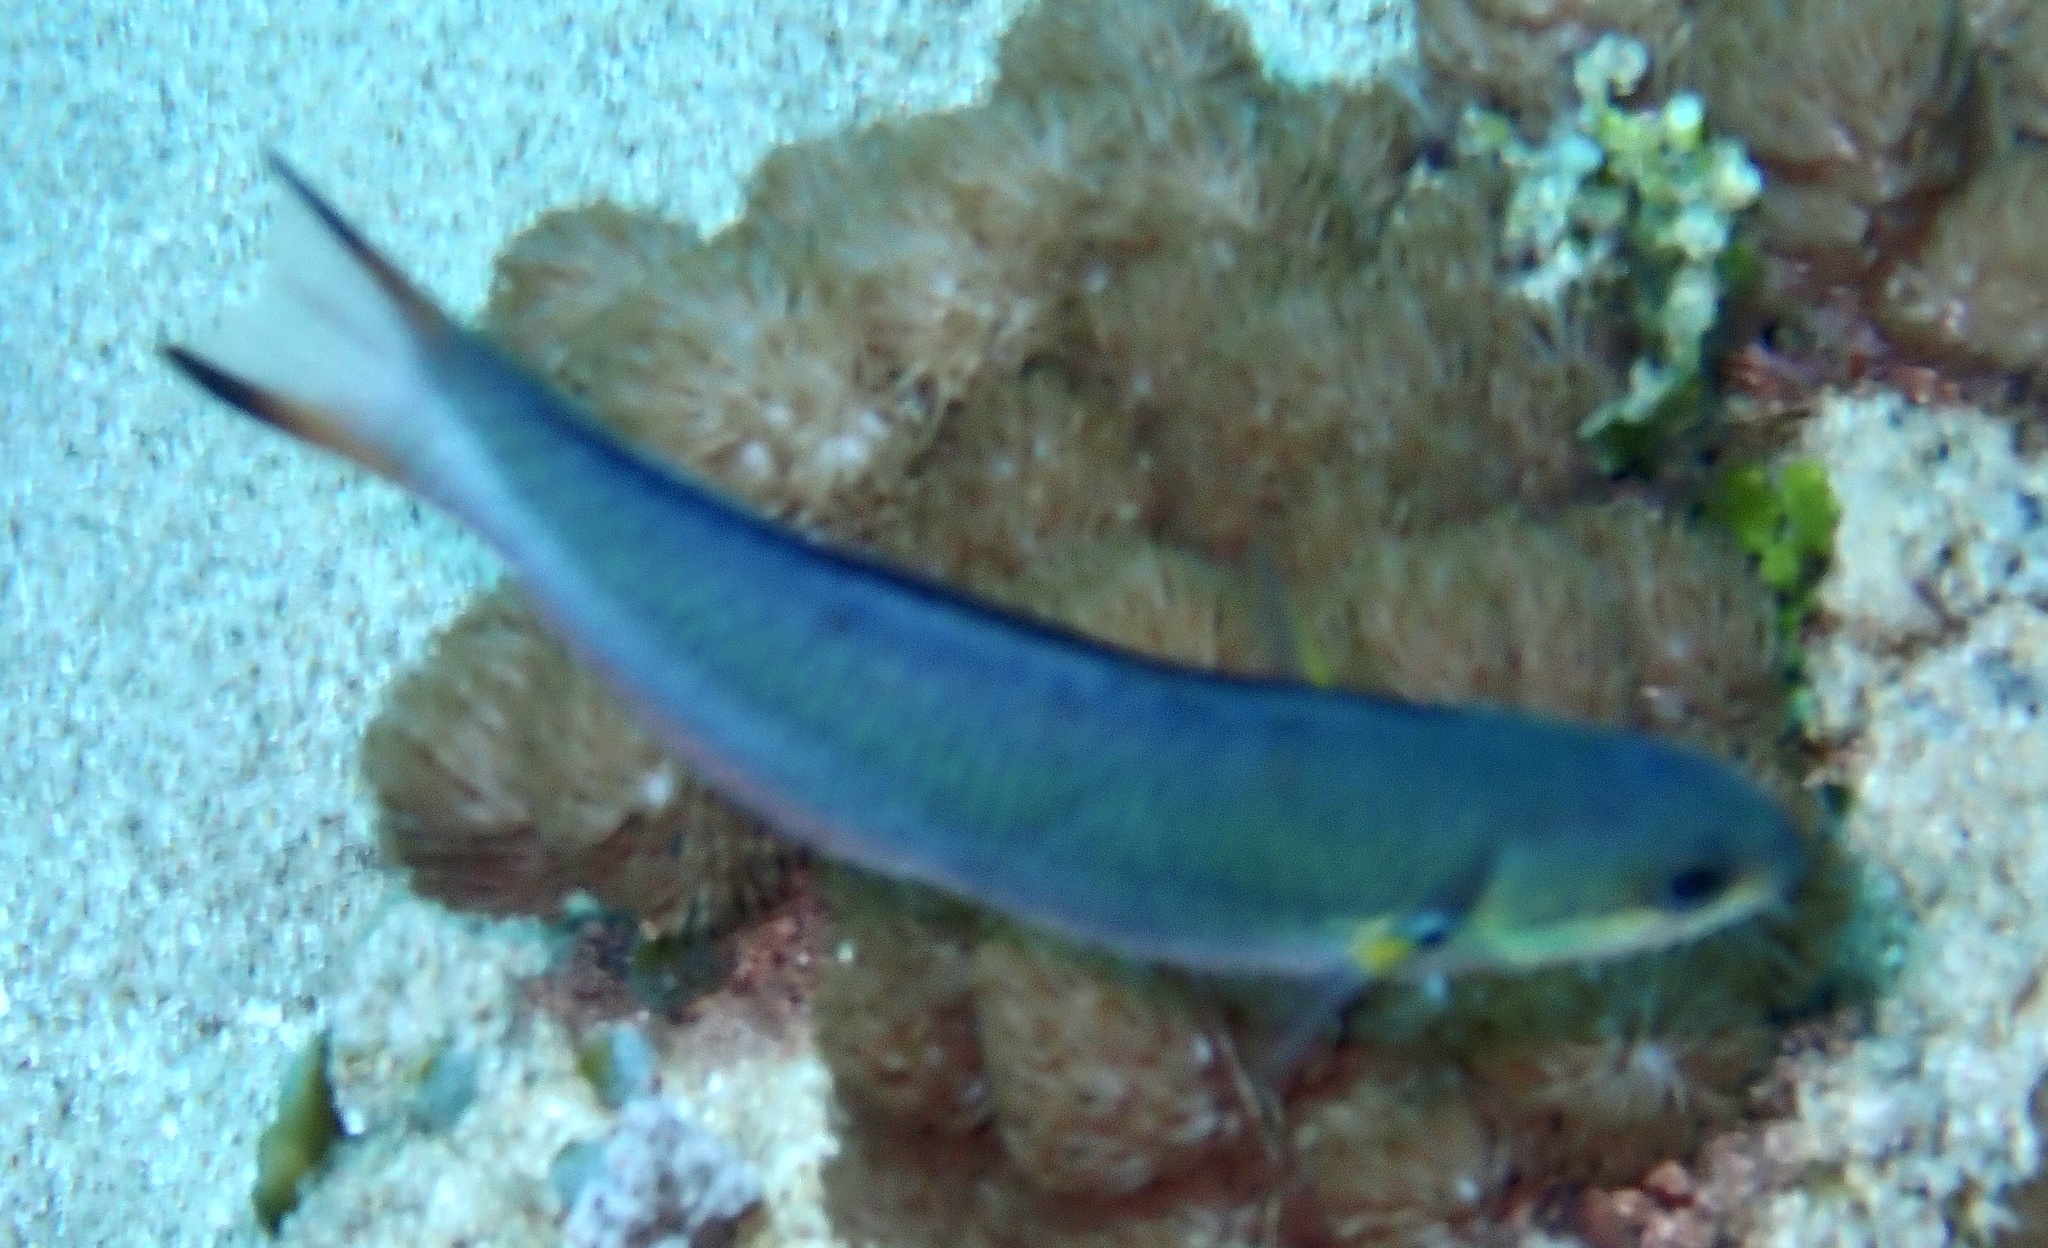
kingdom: Animalia
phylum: Chordata
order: Perciformes
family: Labridae
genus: Thalassoma
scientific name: Thalassoma amblycephalum
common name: Bluehead wrasse
